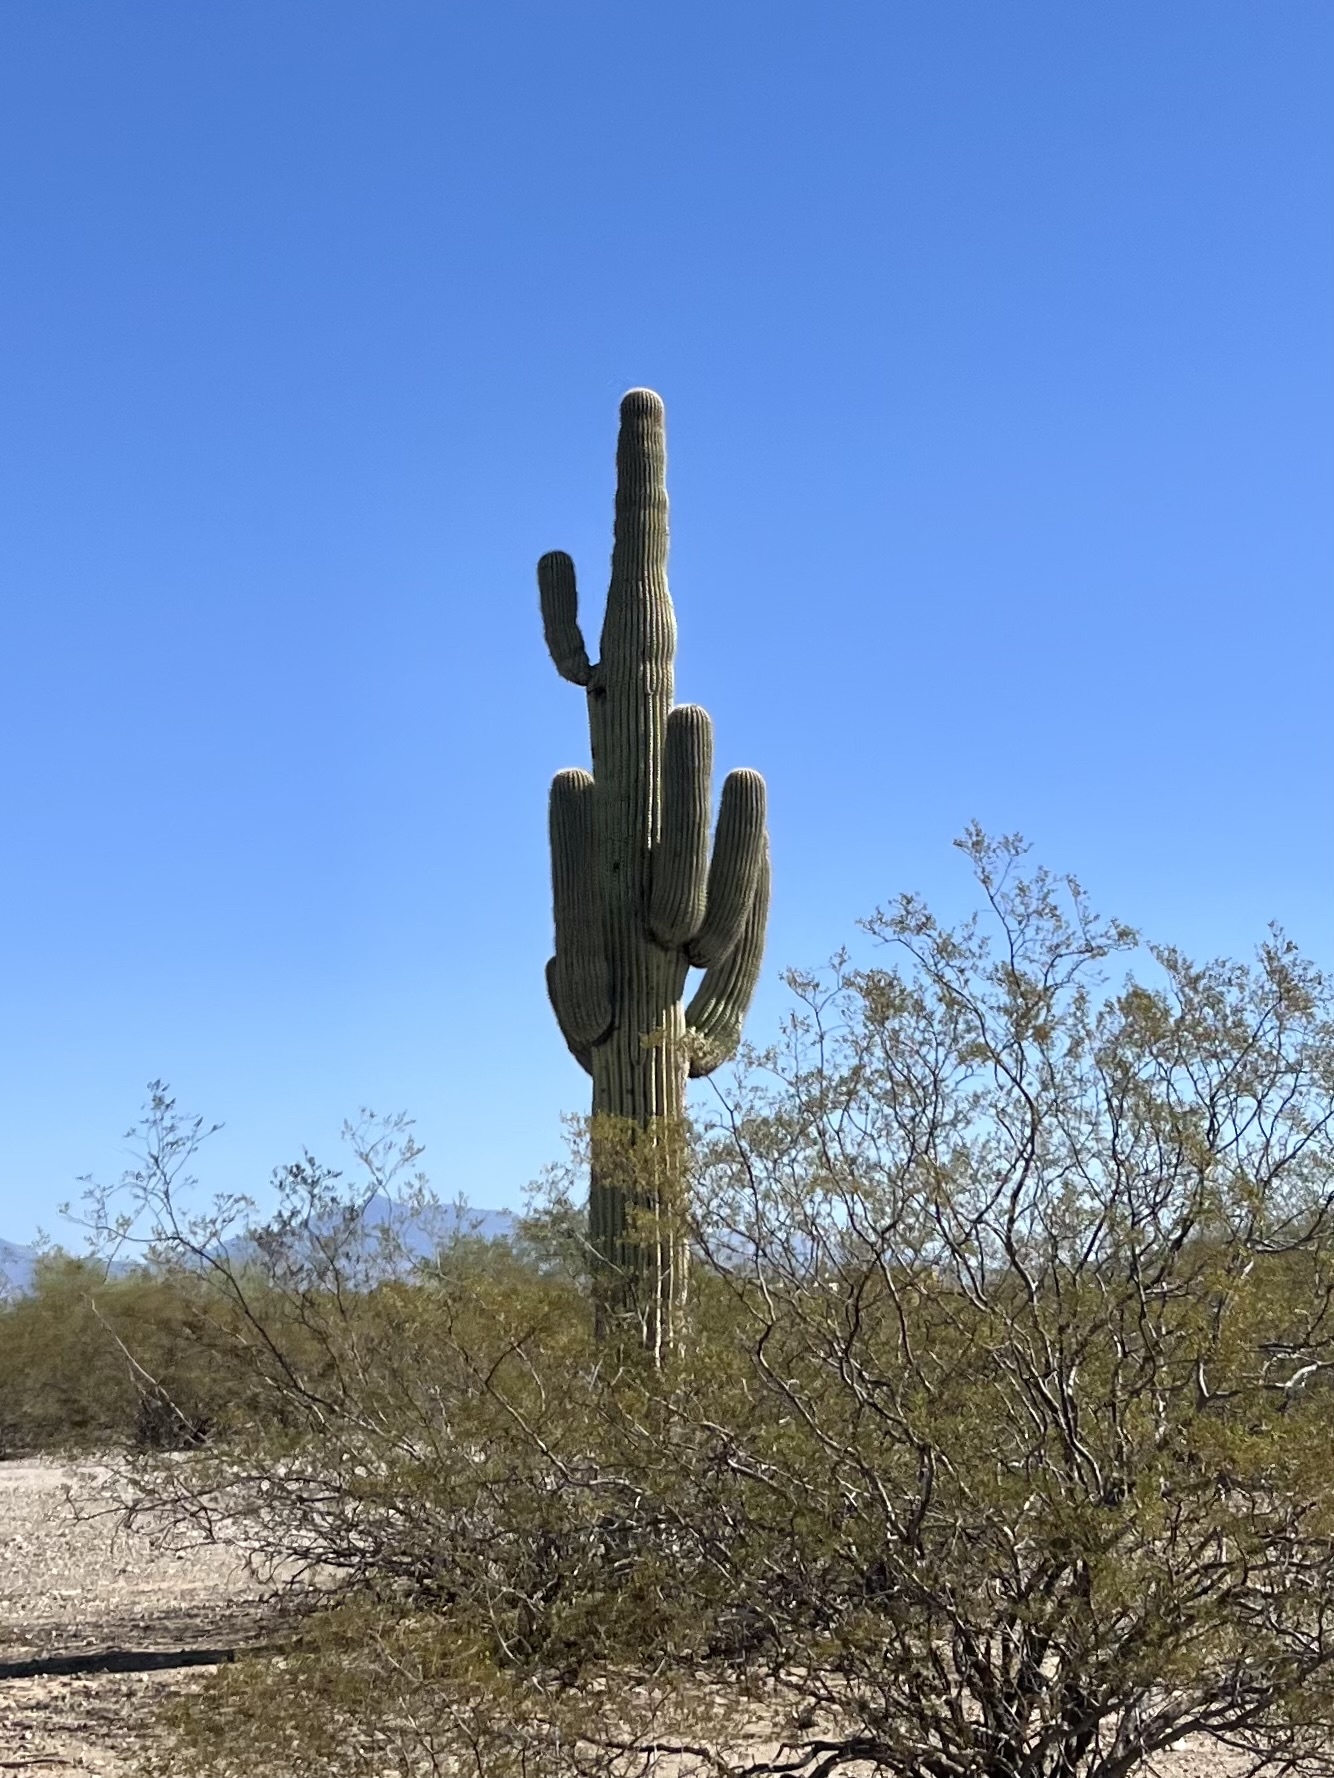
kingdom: Plantae
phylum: Tracheophyta
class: Magnoliopsida
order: Caryophyllales
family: Cactaceae
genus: Carnegiea
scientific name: Carnegiea gigantea
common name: Saguaro
